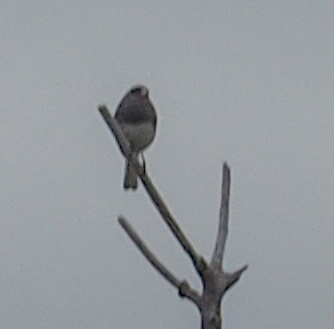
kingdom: Animalia
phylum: Chordata
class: Aves
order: Passeriformes
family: Passerellidae
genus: Junco
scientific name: Junco hyemalis
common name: Dark-eyed junco
